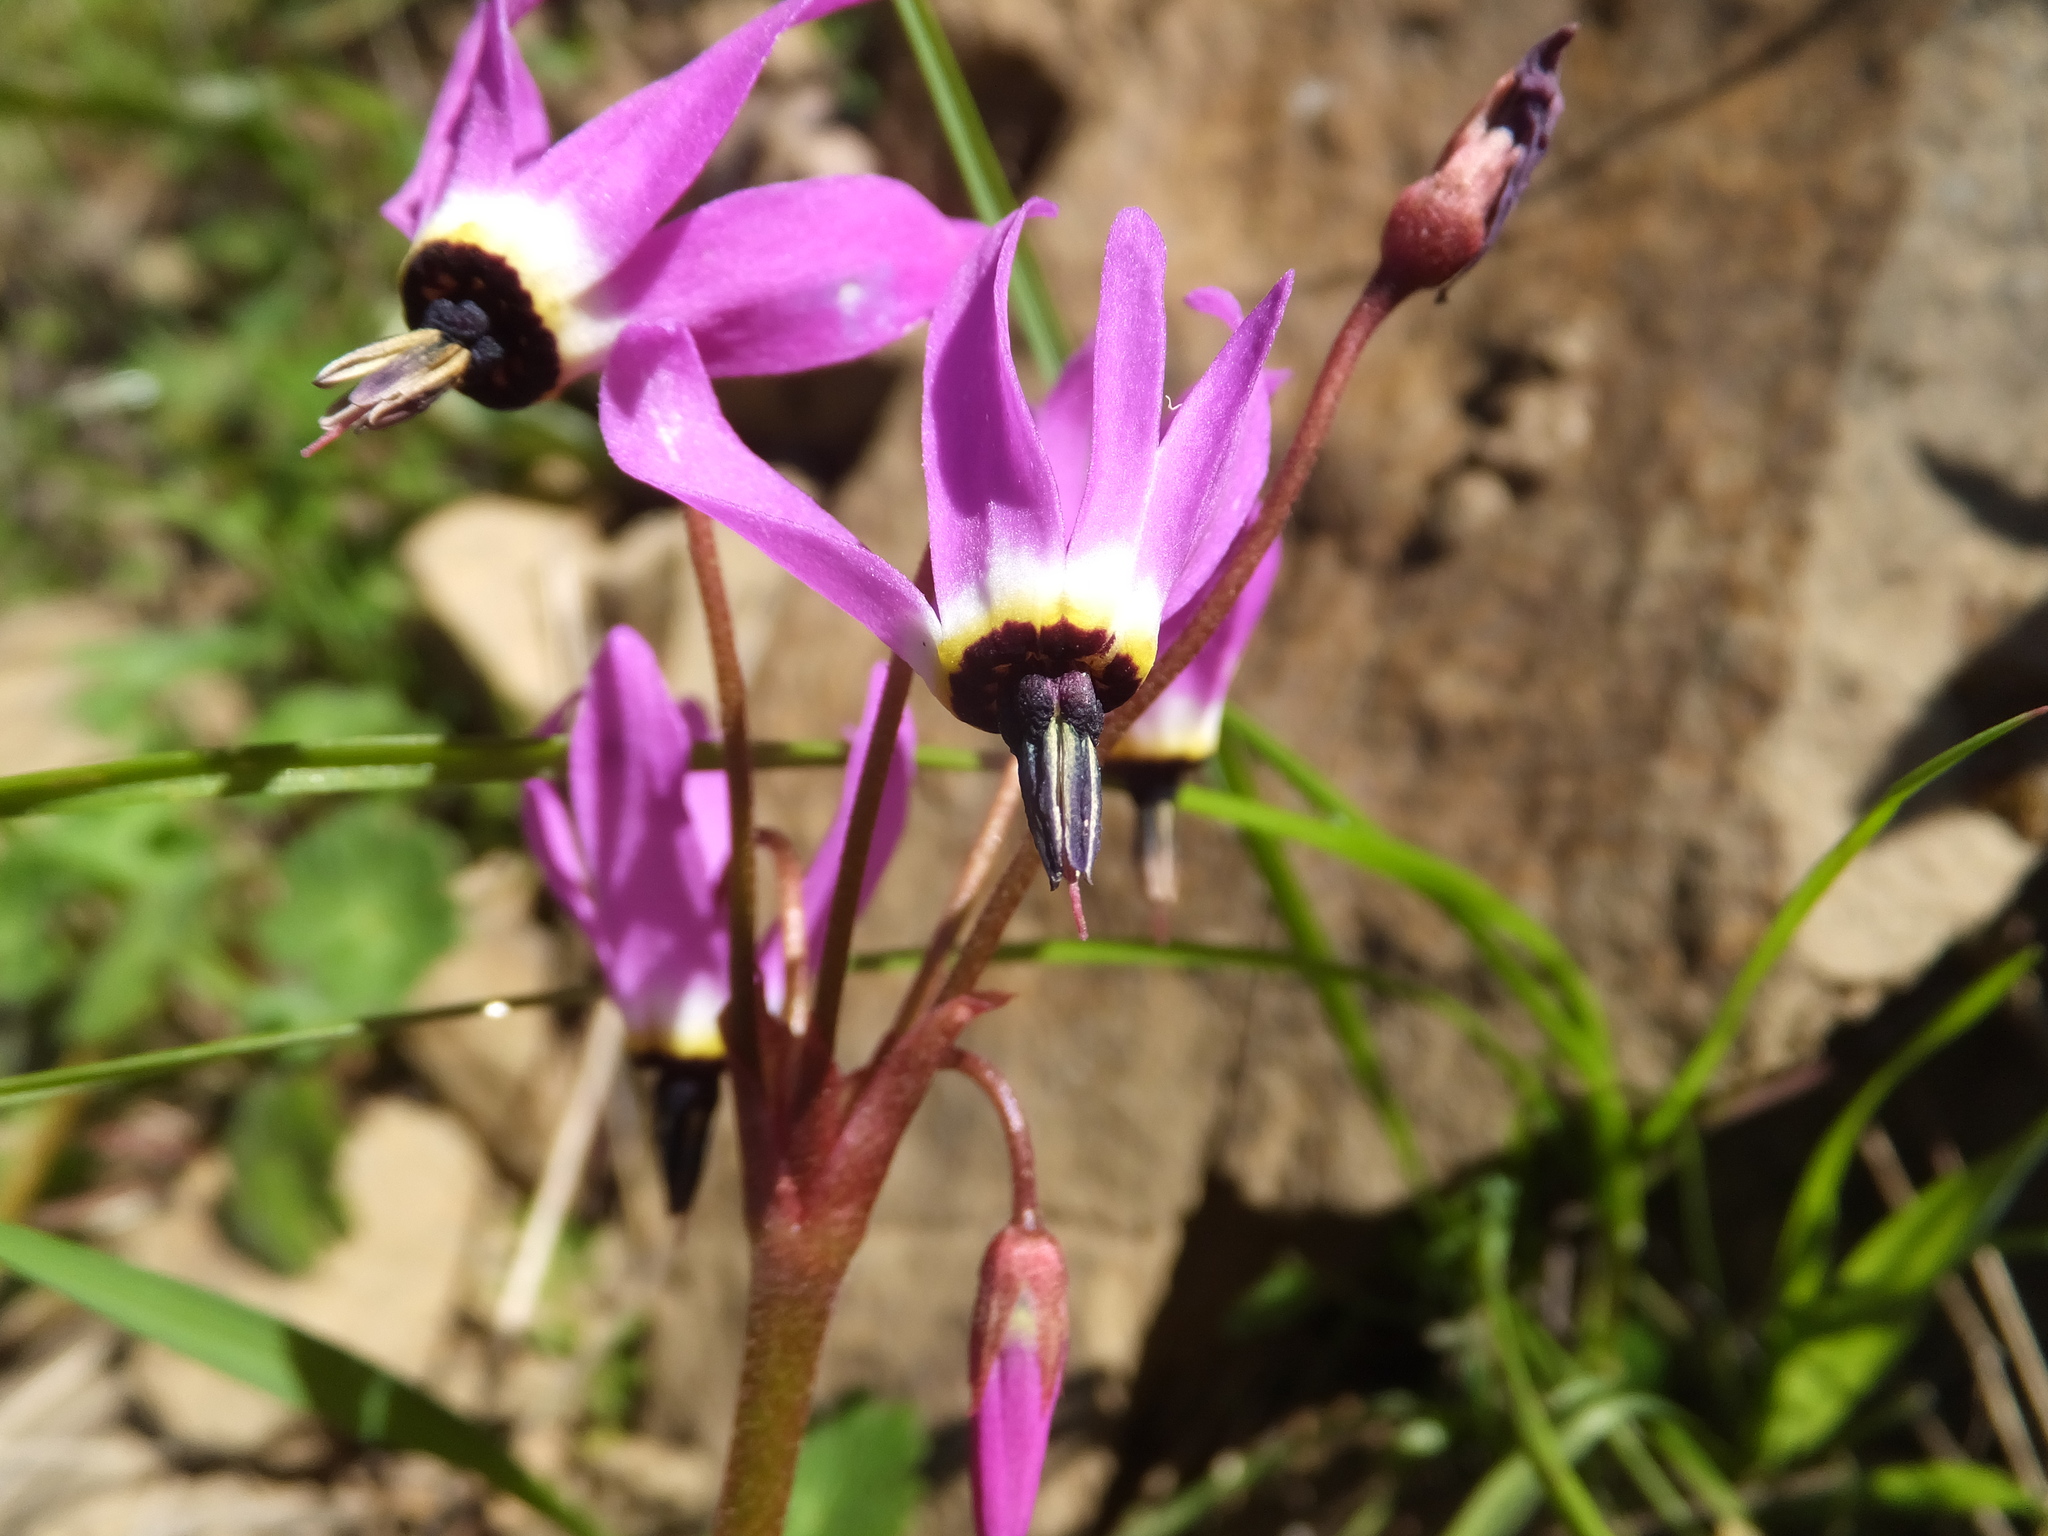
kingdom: Plantae
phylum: Tracheophyta
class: Magnoliopsida
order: Ericales
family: Primulaceae
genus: Dodecatheon
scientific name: Dodecatheon hendersonii
